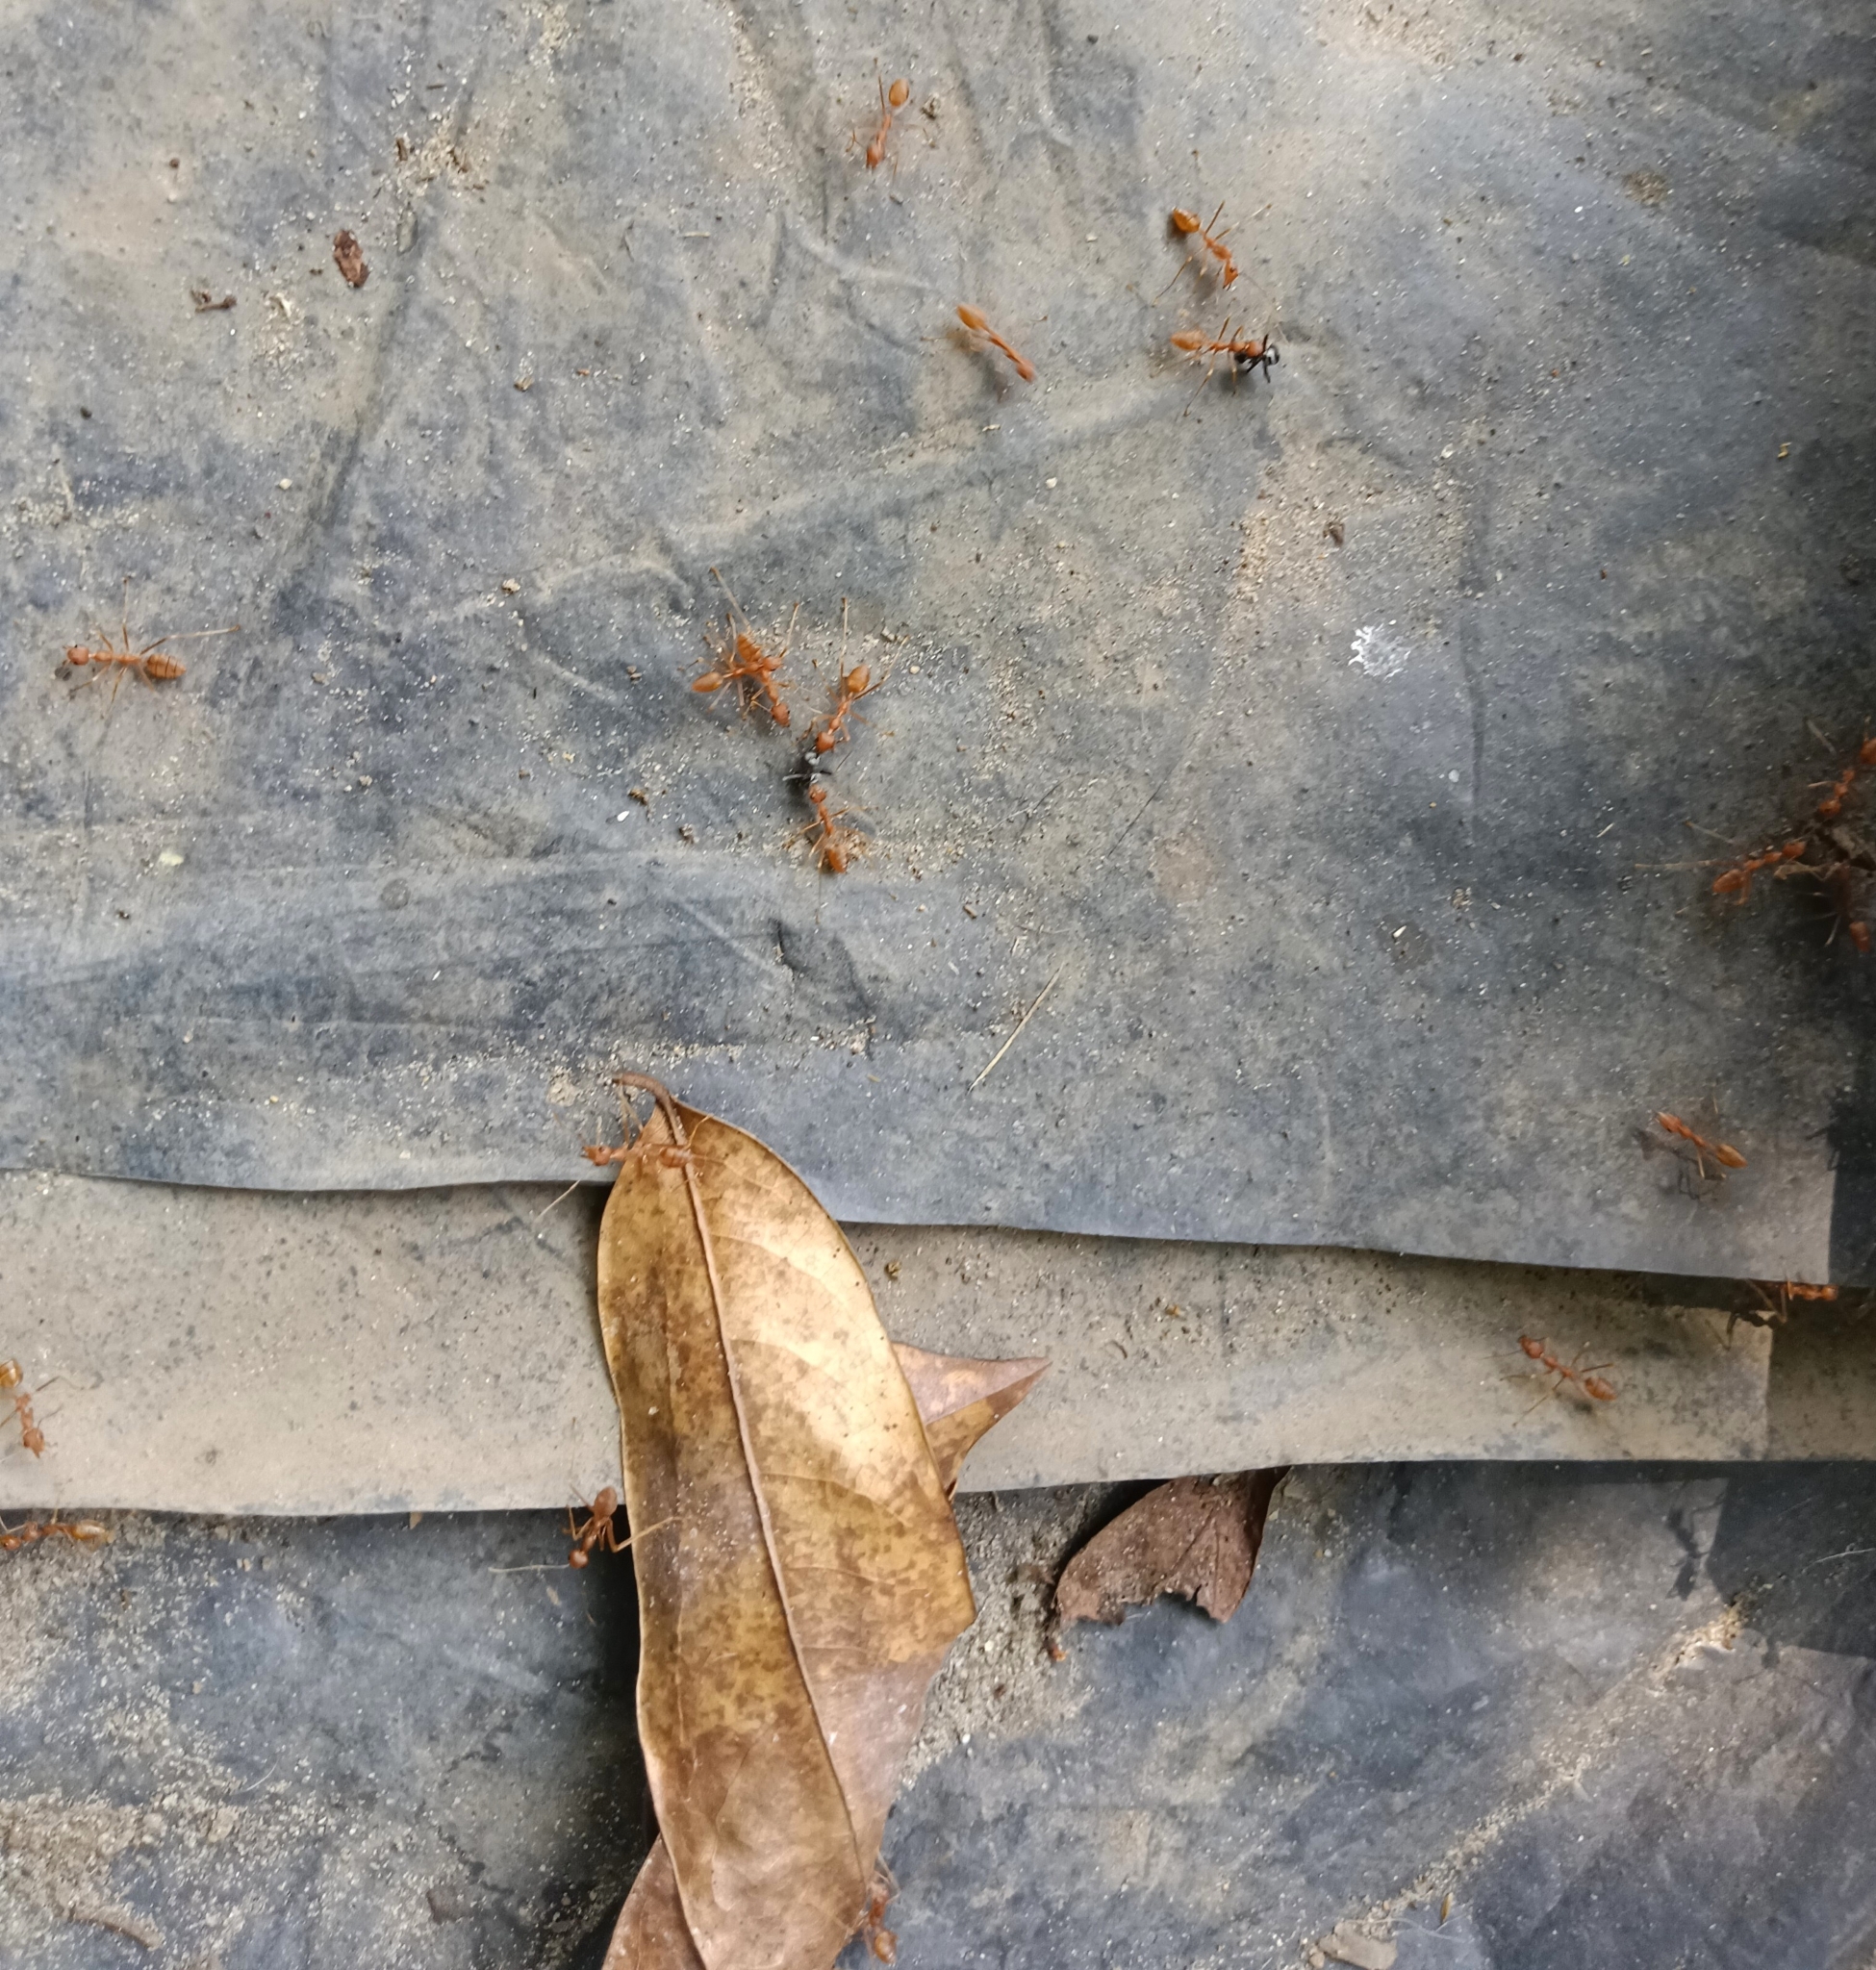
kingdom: Animalia
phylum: Arthropoda
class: Insecta
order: Hymenoptera
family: Formicidae
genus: Oecophylla
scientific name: Oecophylla smaragdina
